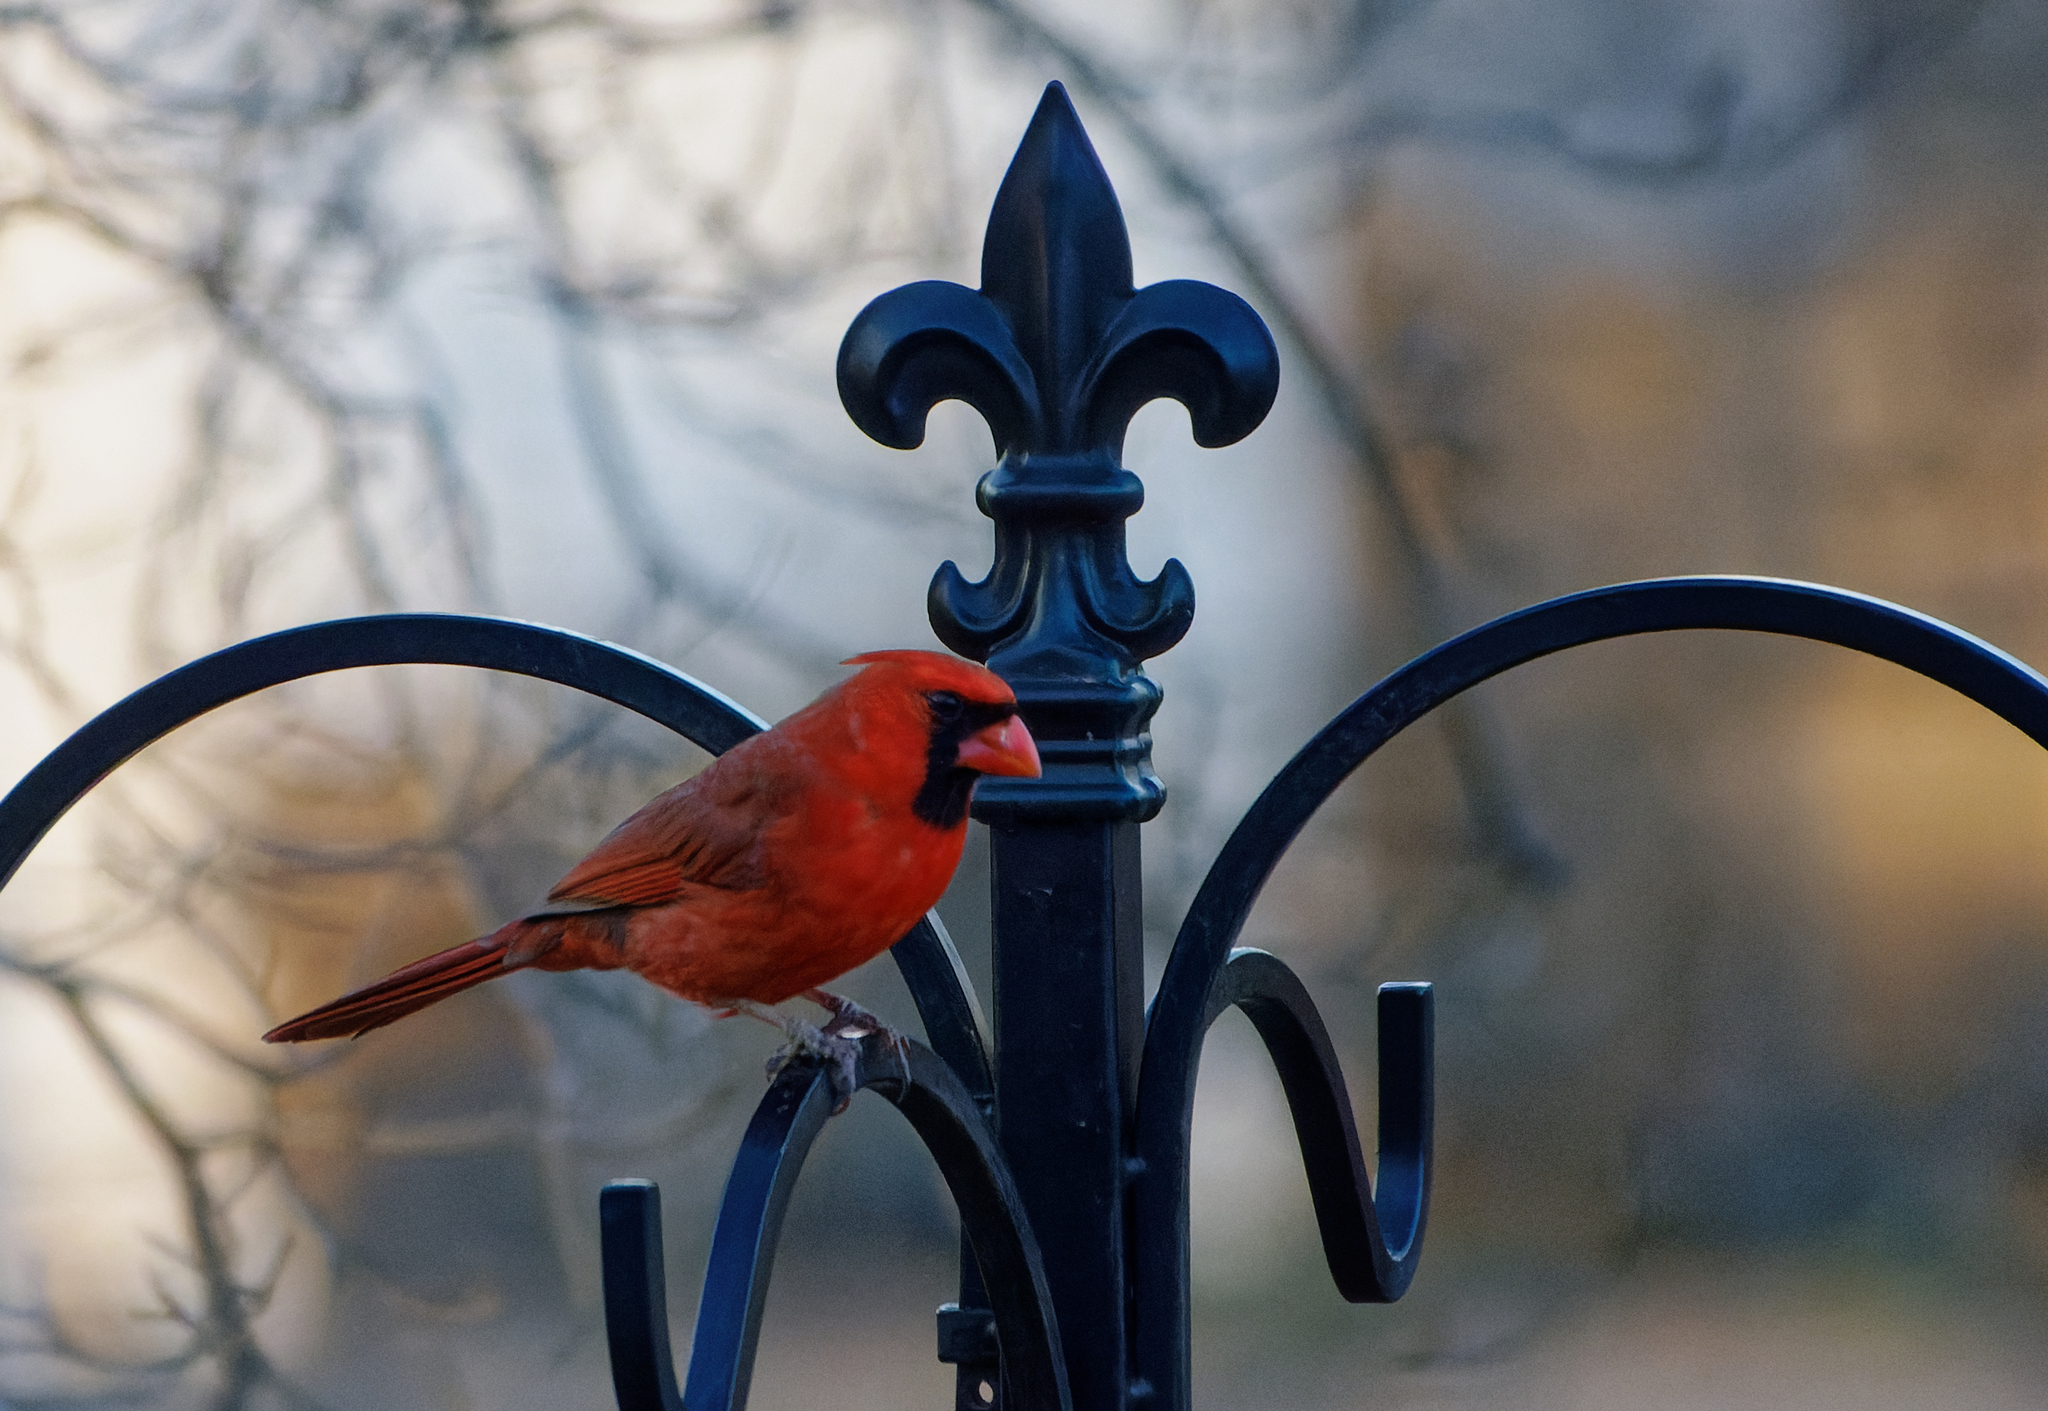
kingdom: Animalia
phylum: Chordata
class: Aves
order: Passeriformes
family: Cardinalidae
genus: Cardinalis
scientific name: Cardinalis cardinalis
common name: Northern cardinal
